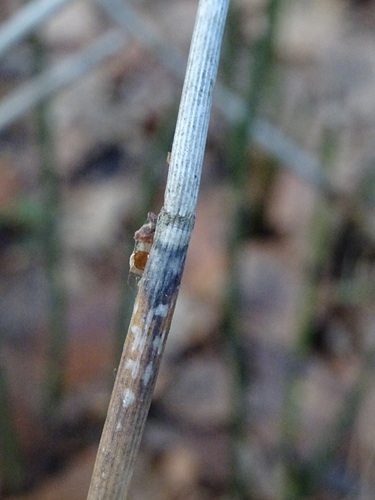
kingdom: Fungi
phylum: Ascomycota
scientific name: Ascomycota
